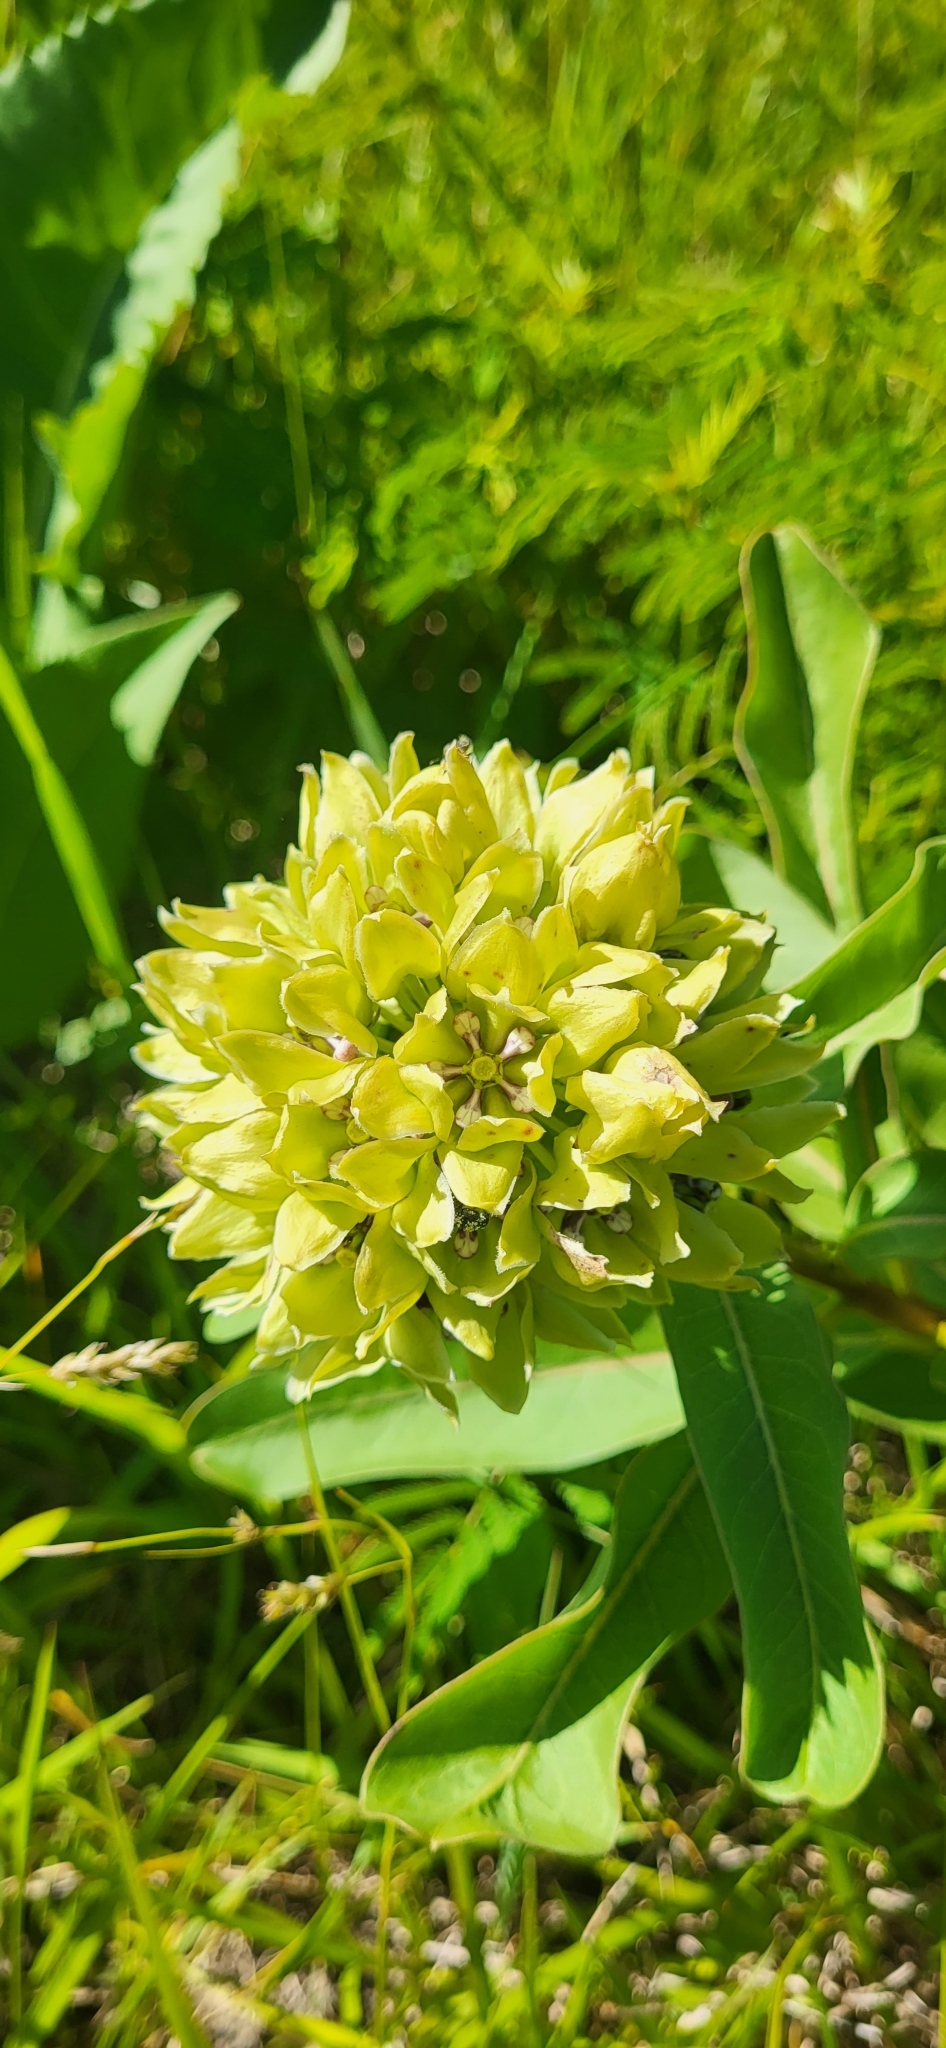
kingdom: Plantae
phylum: Tracheophyta
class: Magnoliopsida
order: Gentianales
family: Apocynaceae
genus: Asclepias
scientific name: Asclepias viridis
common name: Antelope-horns
